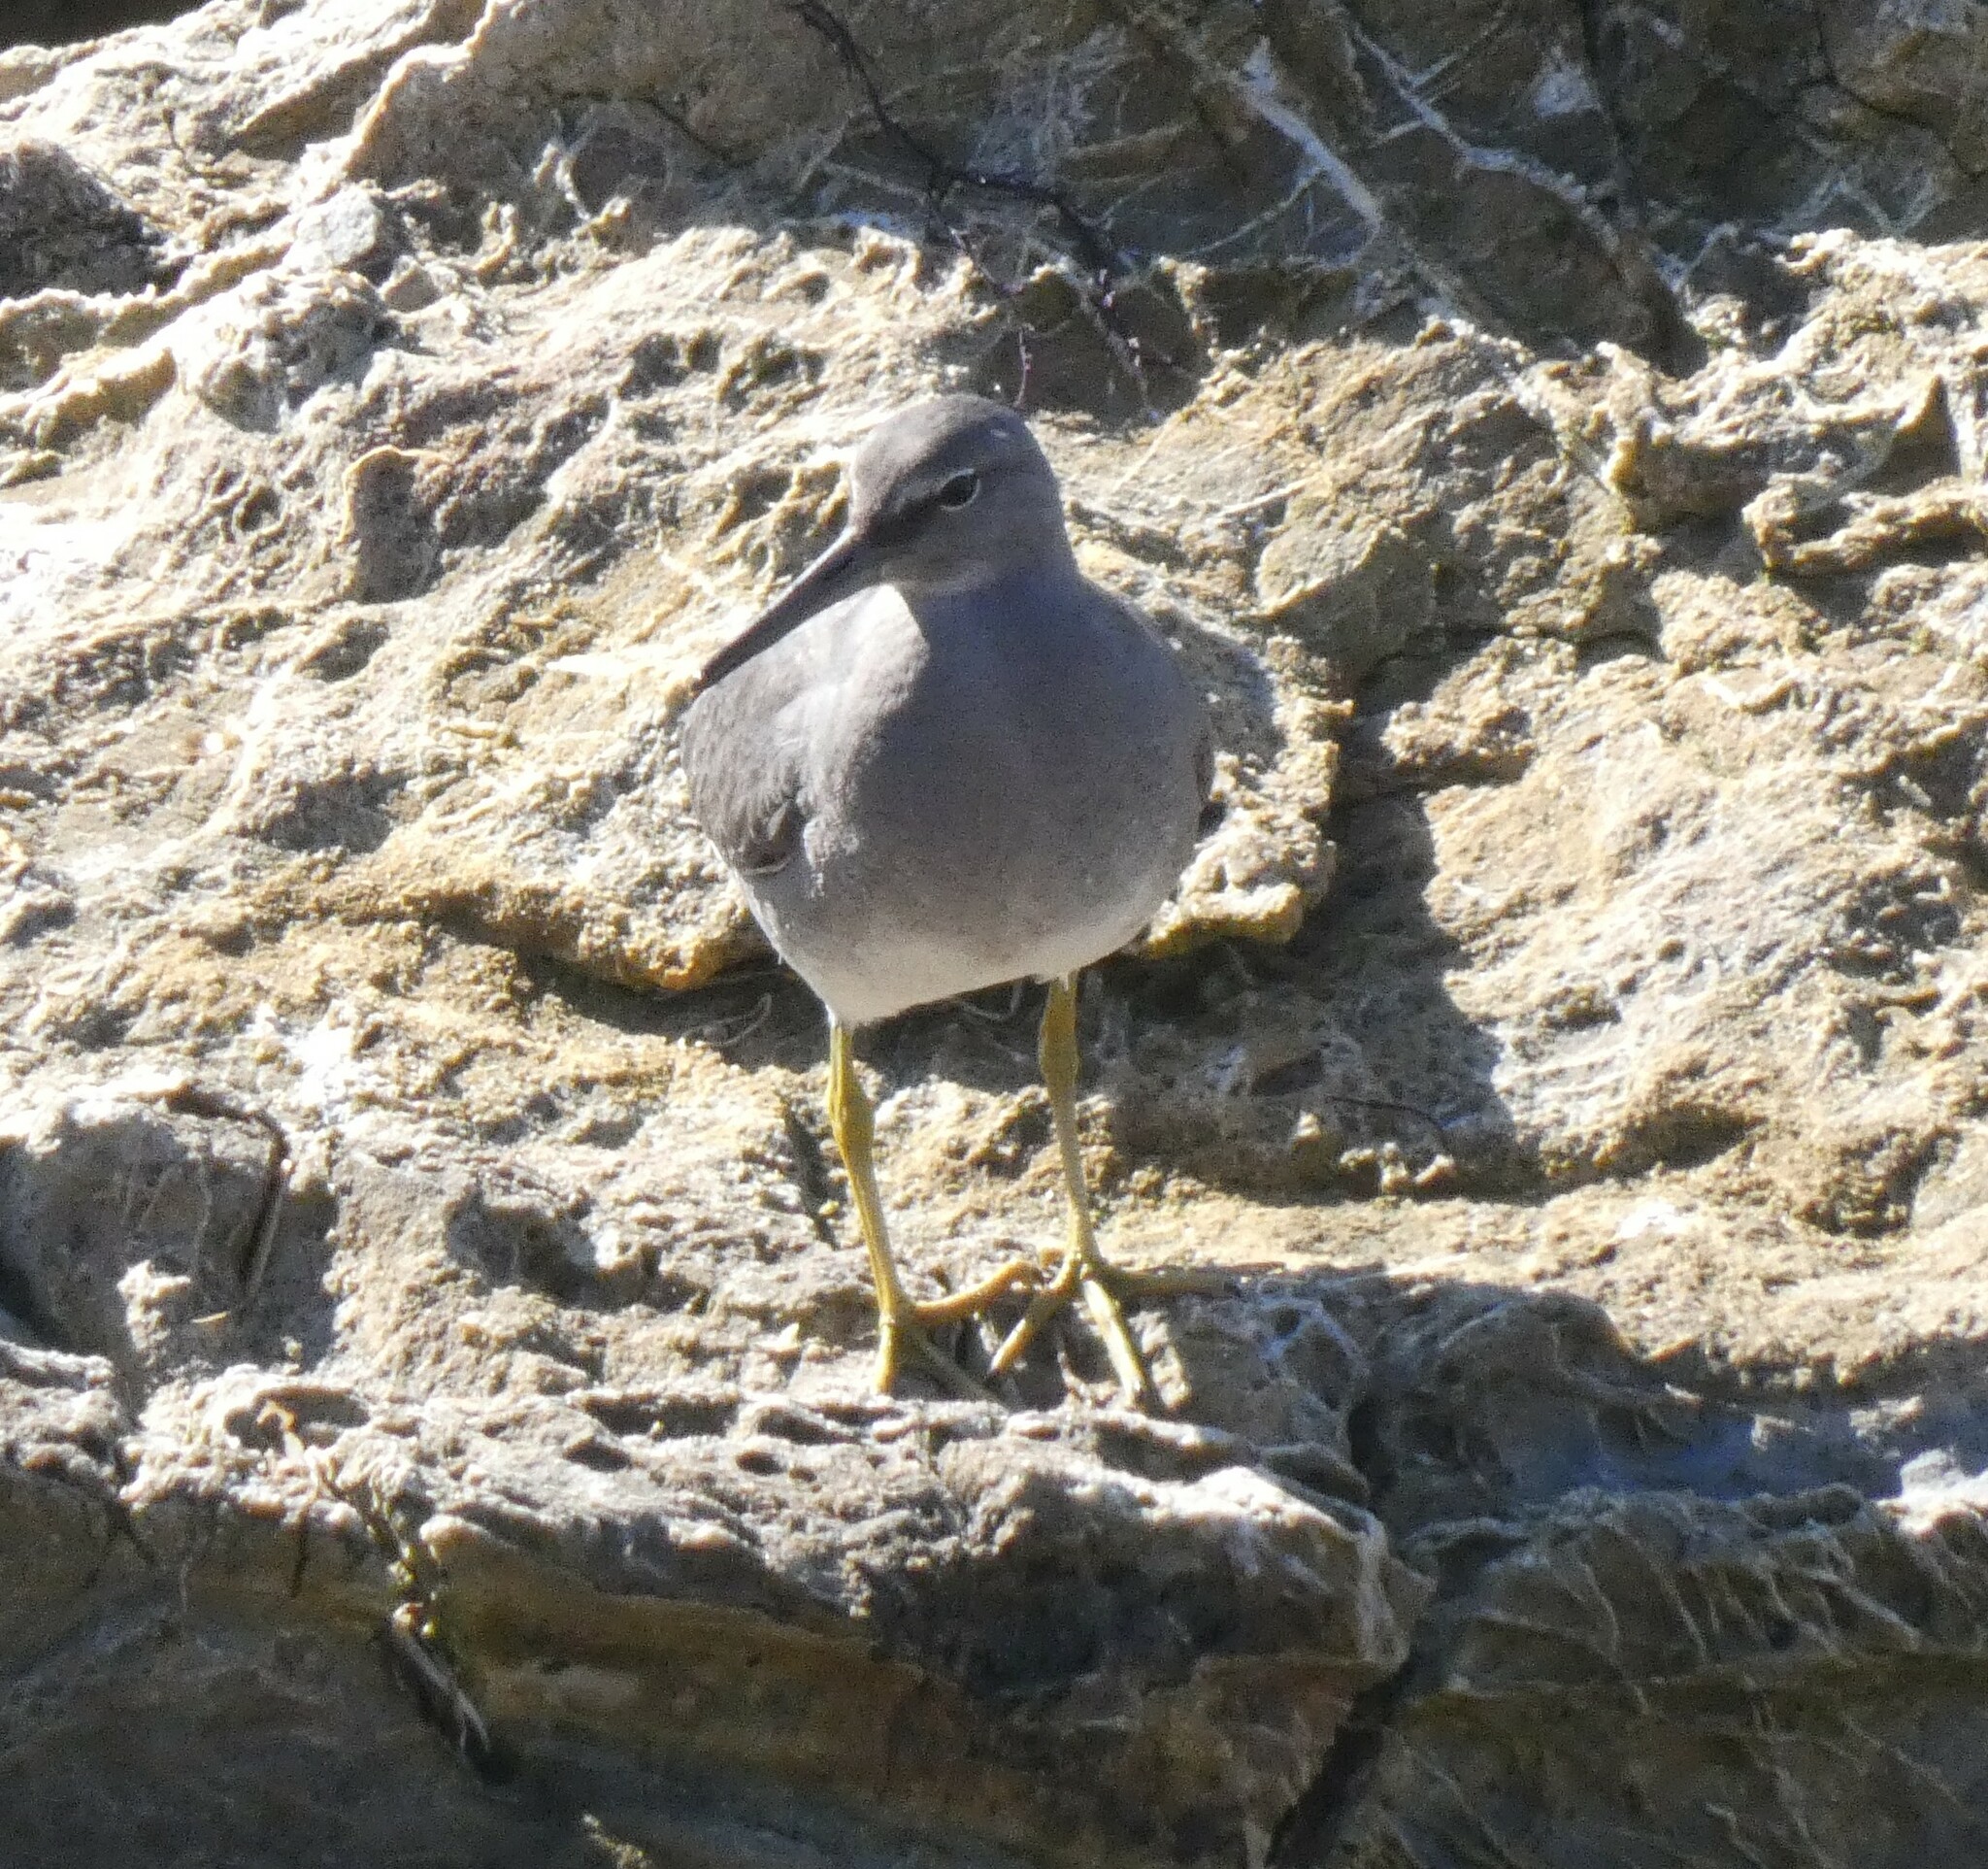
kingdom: Animalia
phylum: Chordata
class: Aves
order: Charadriiformes
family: Scolopacidae
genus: Tringa
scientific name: Tringa incana
